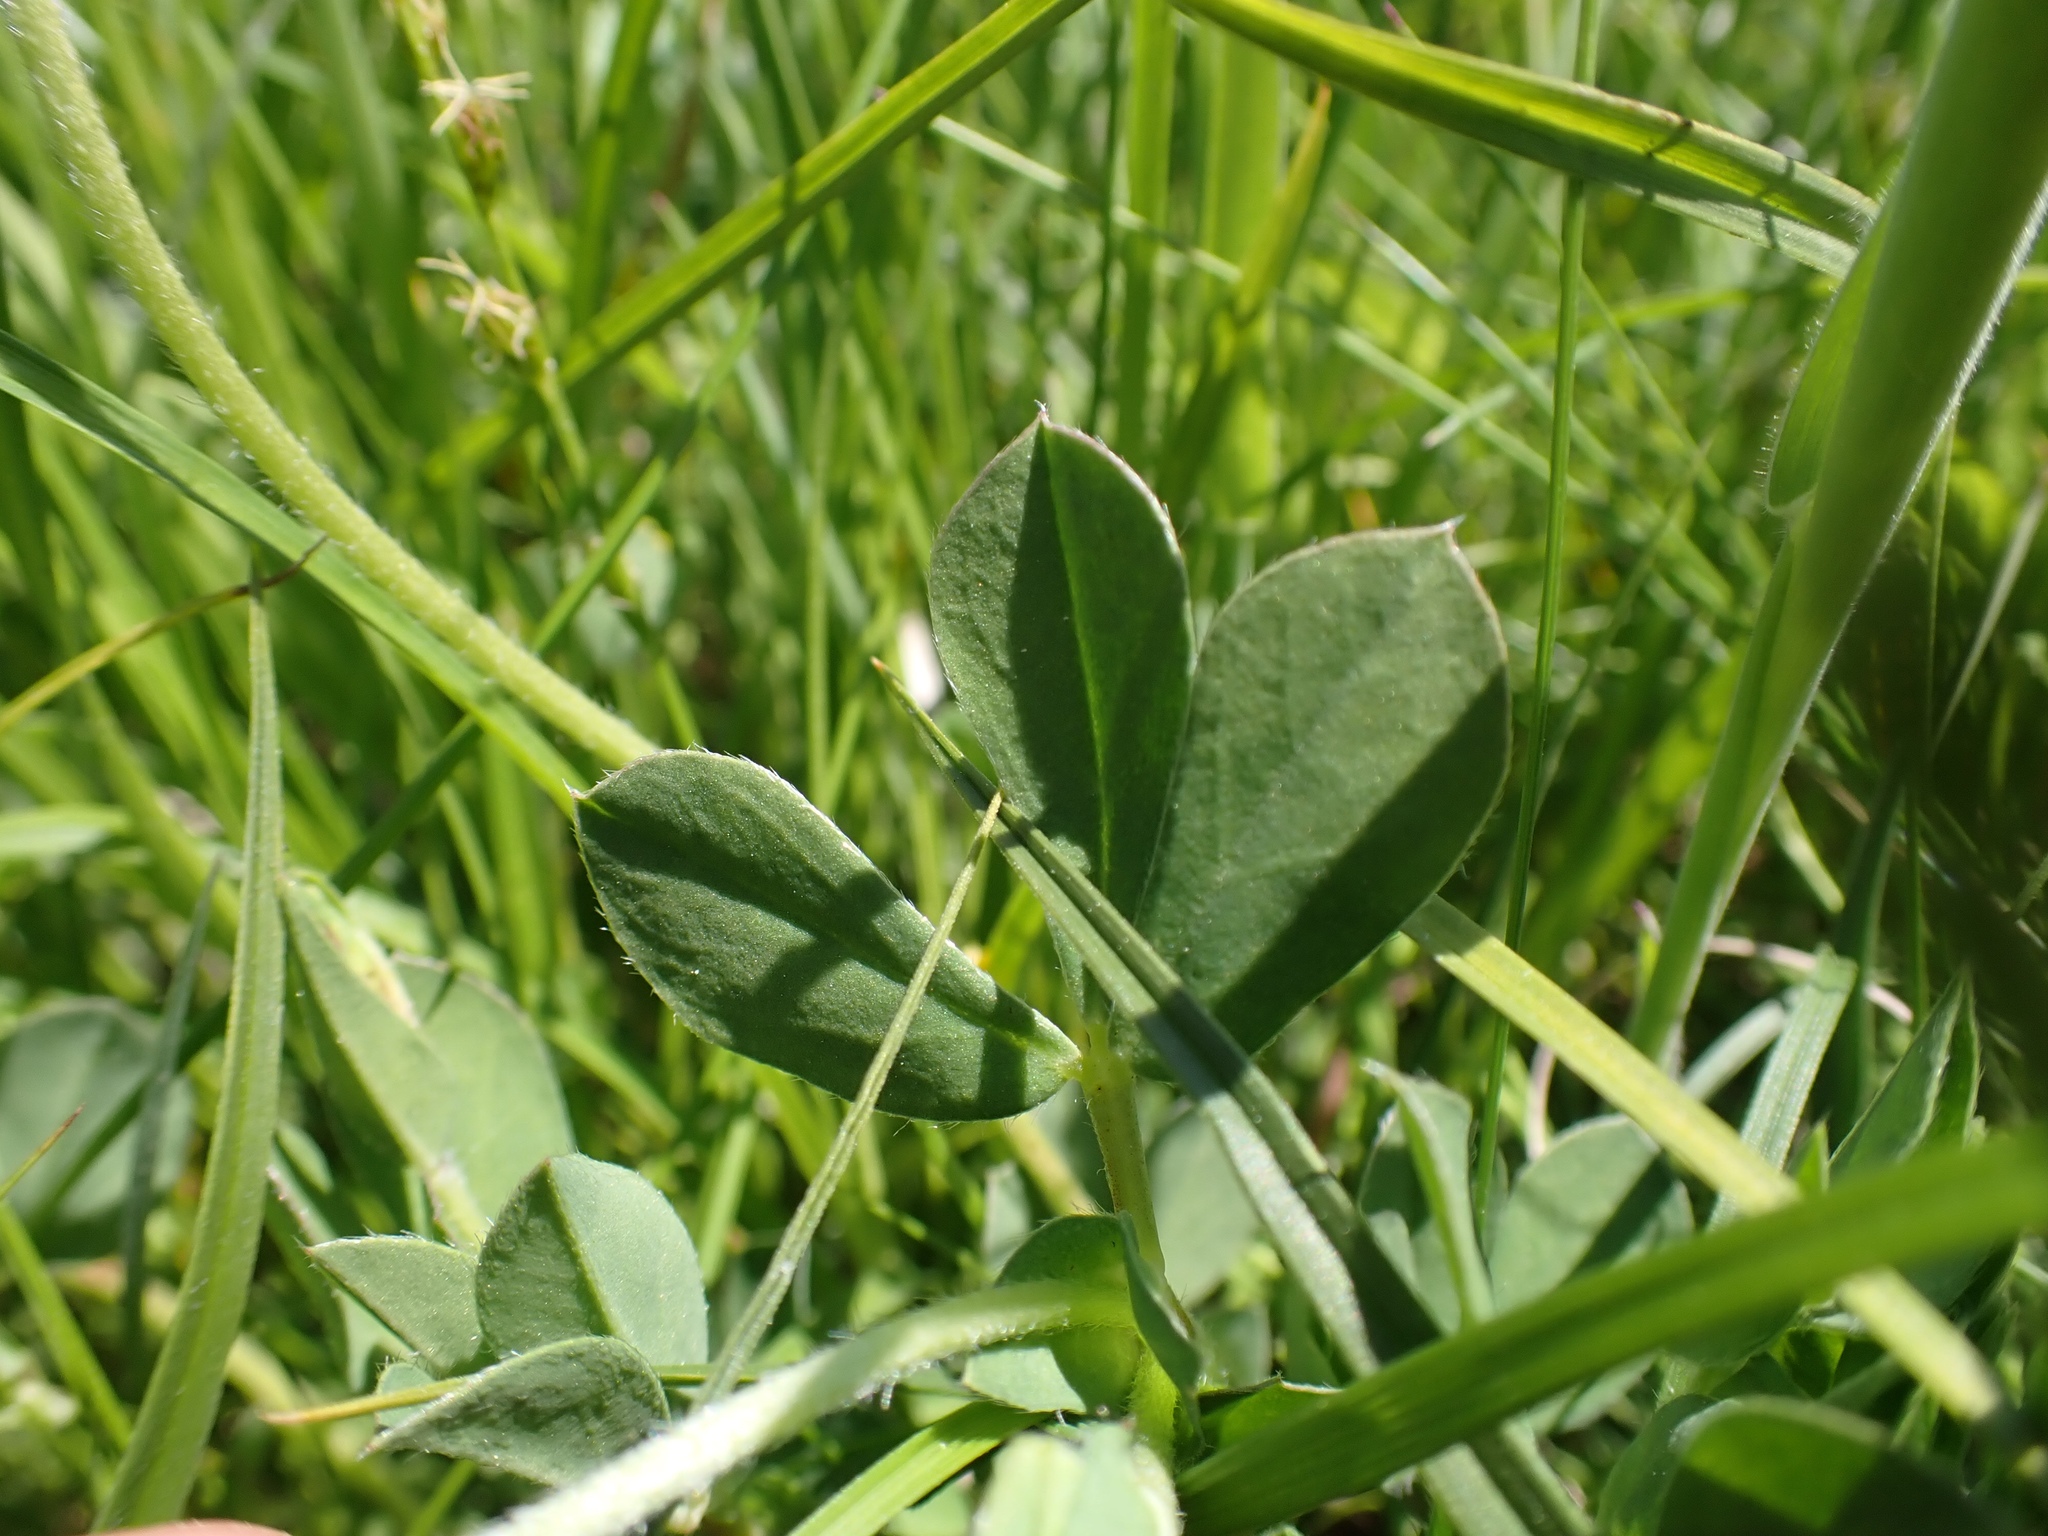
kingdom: Plantae
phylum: Tracheophyta
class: Magnoliopsida
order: Fabales
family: Fabaceae
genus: Lotus
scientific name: Lotus maritimus
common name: Dragon's-teeth
